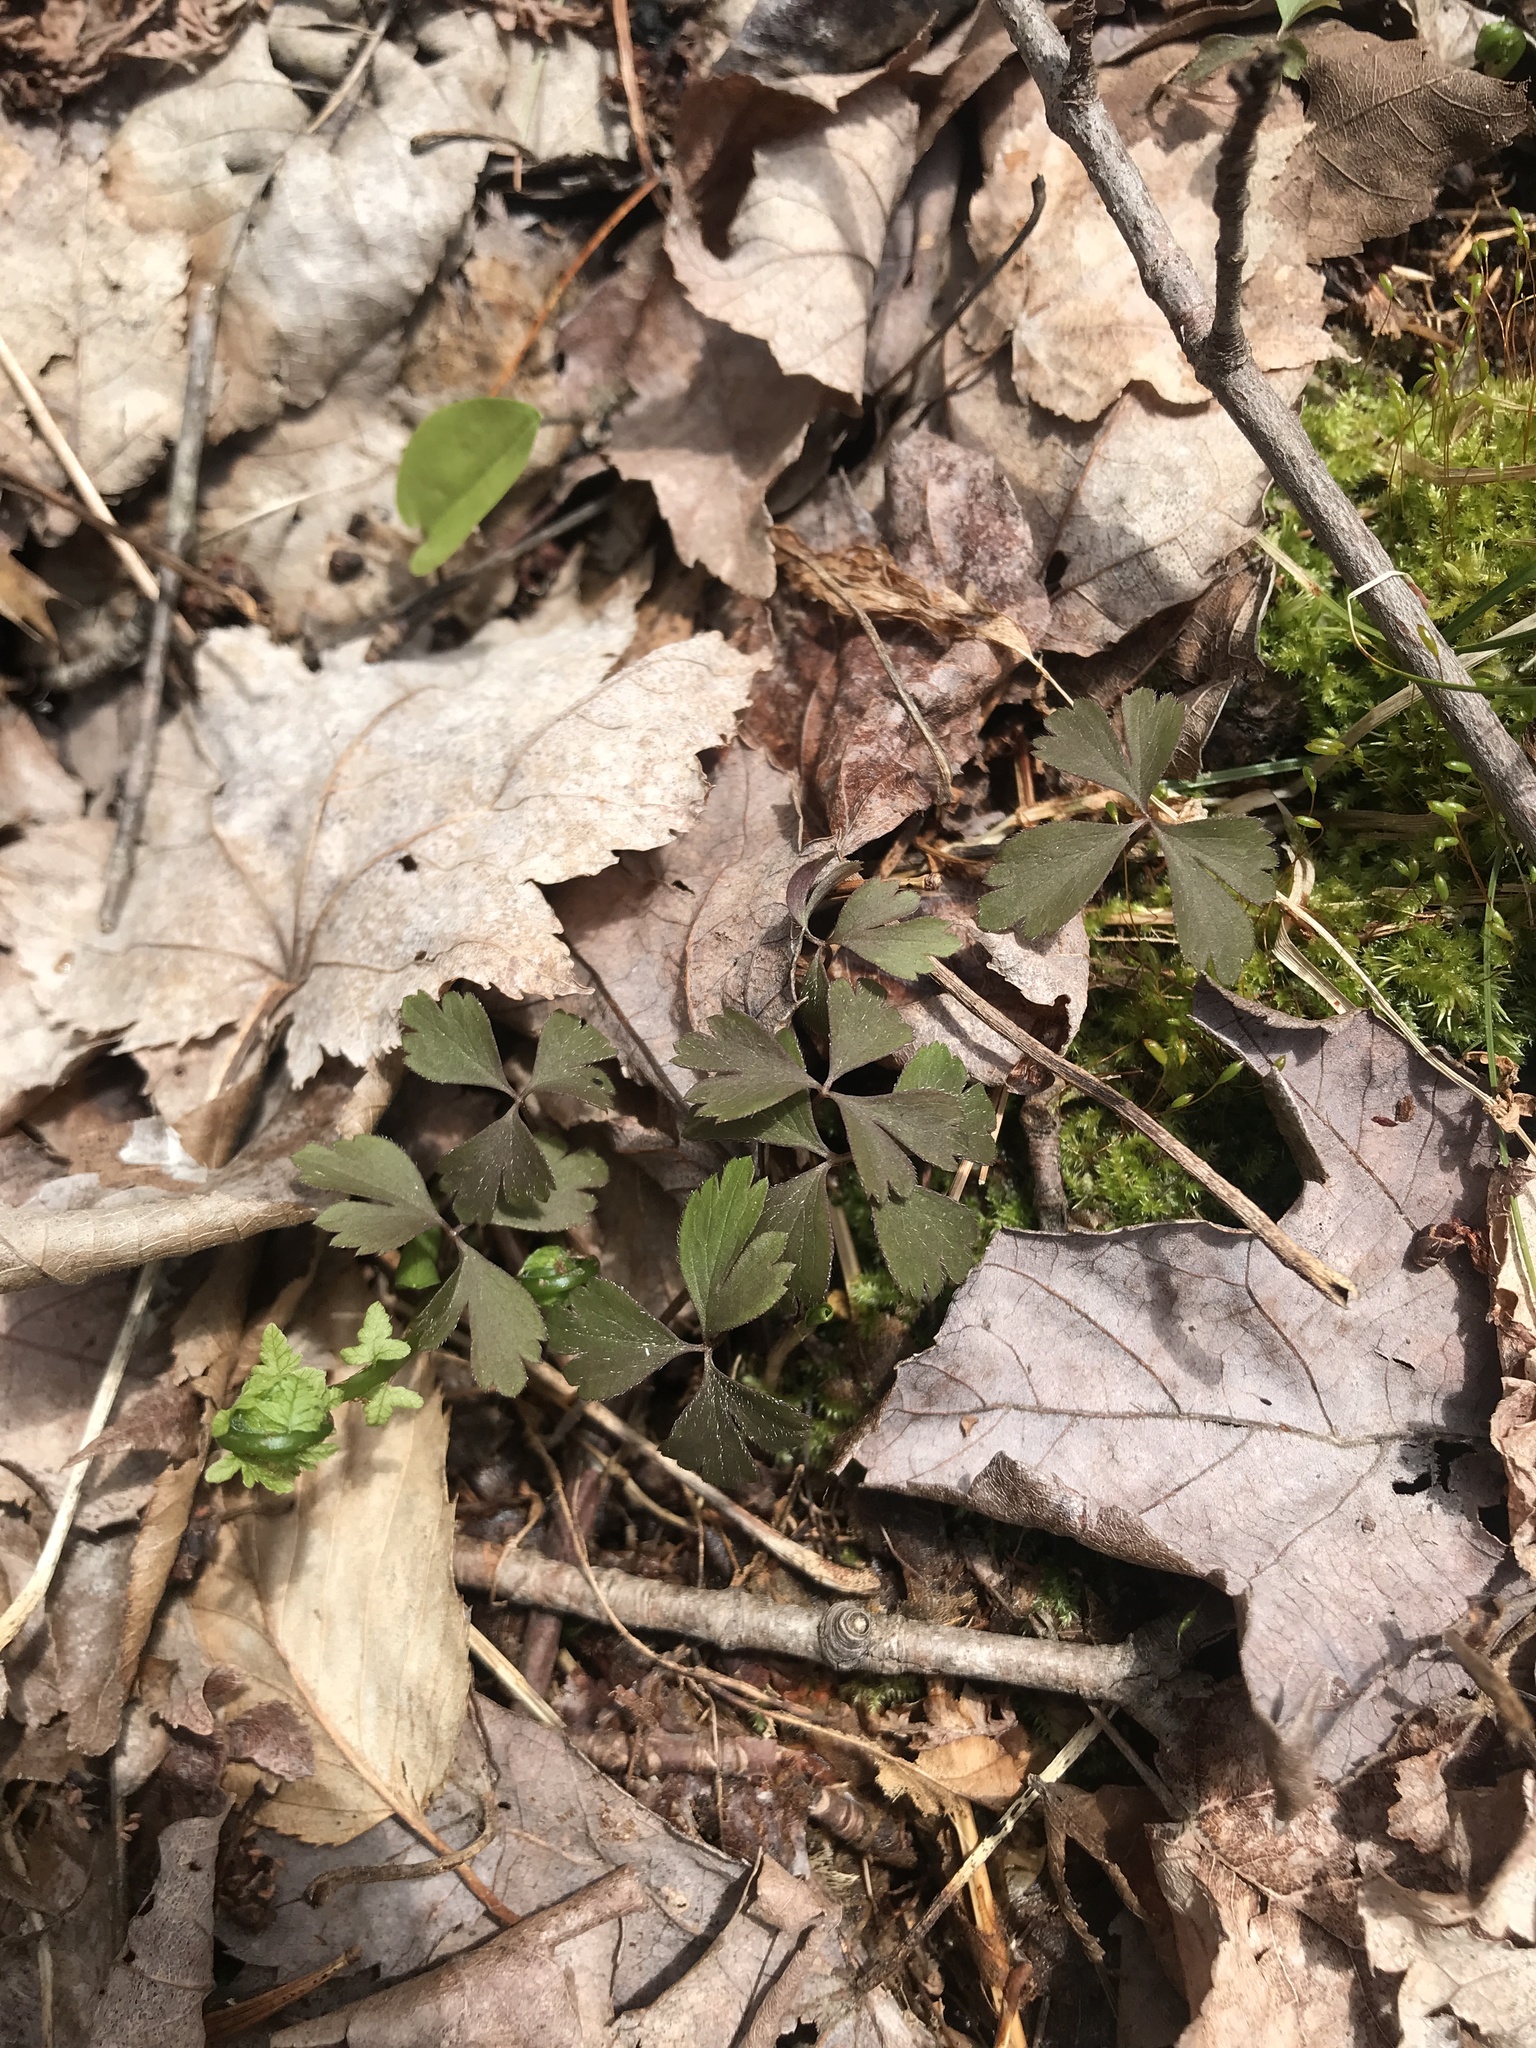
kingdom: Plantae
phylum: Tracheophyta
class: Magnoliopsida
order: Ranunculales
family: Ranunculaceae
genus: Anemone
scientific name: Anemone quinquefolia
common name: Wood anemone
